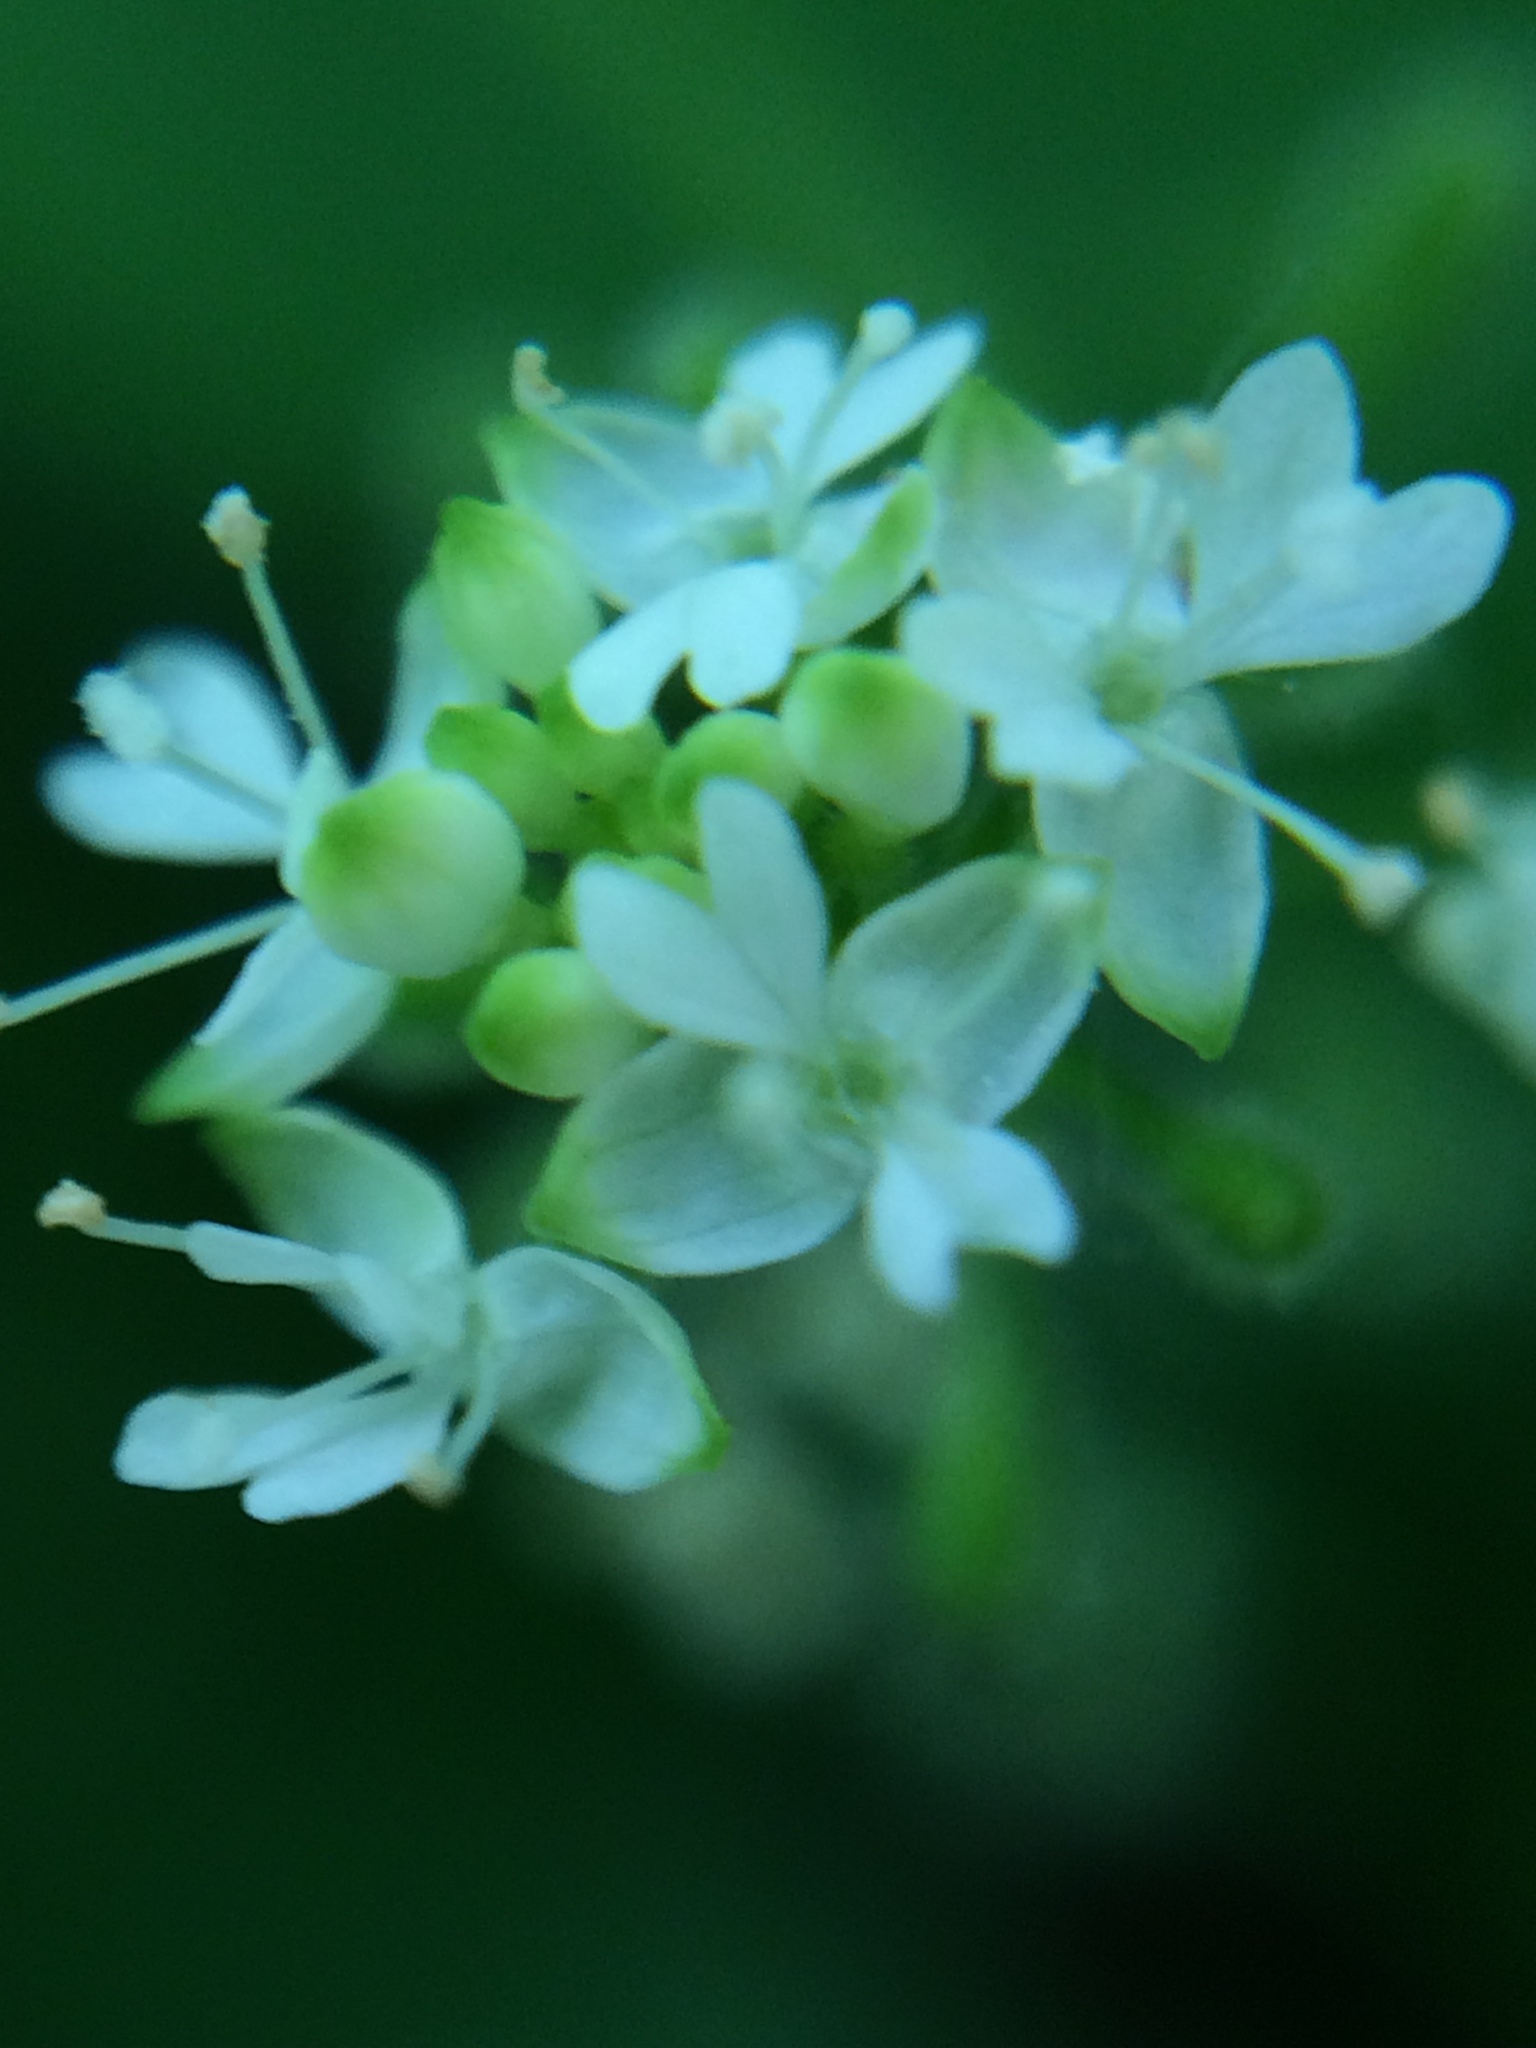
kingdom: Plantae
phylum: Tracheophyta
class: Magnoliopsida
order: Myrtales
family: Onagraceae
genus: Circaea
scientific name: Circaea alpina
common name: Alpine enchanter's-nightshade
